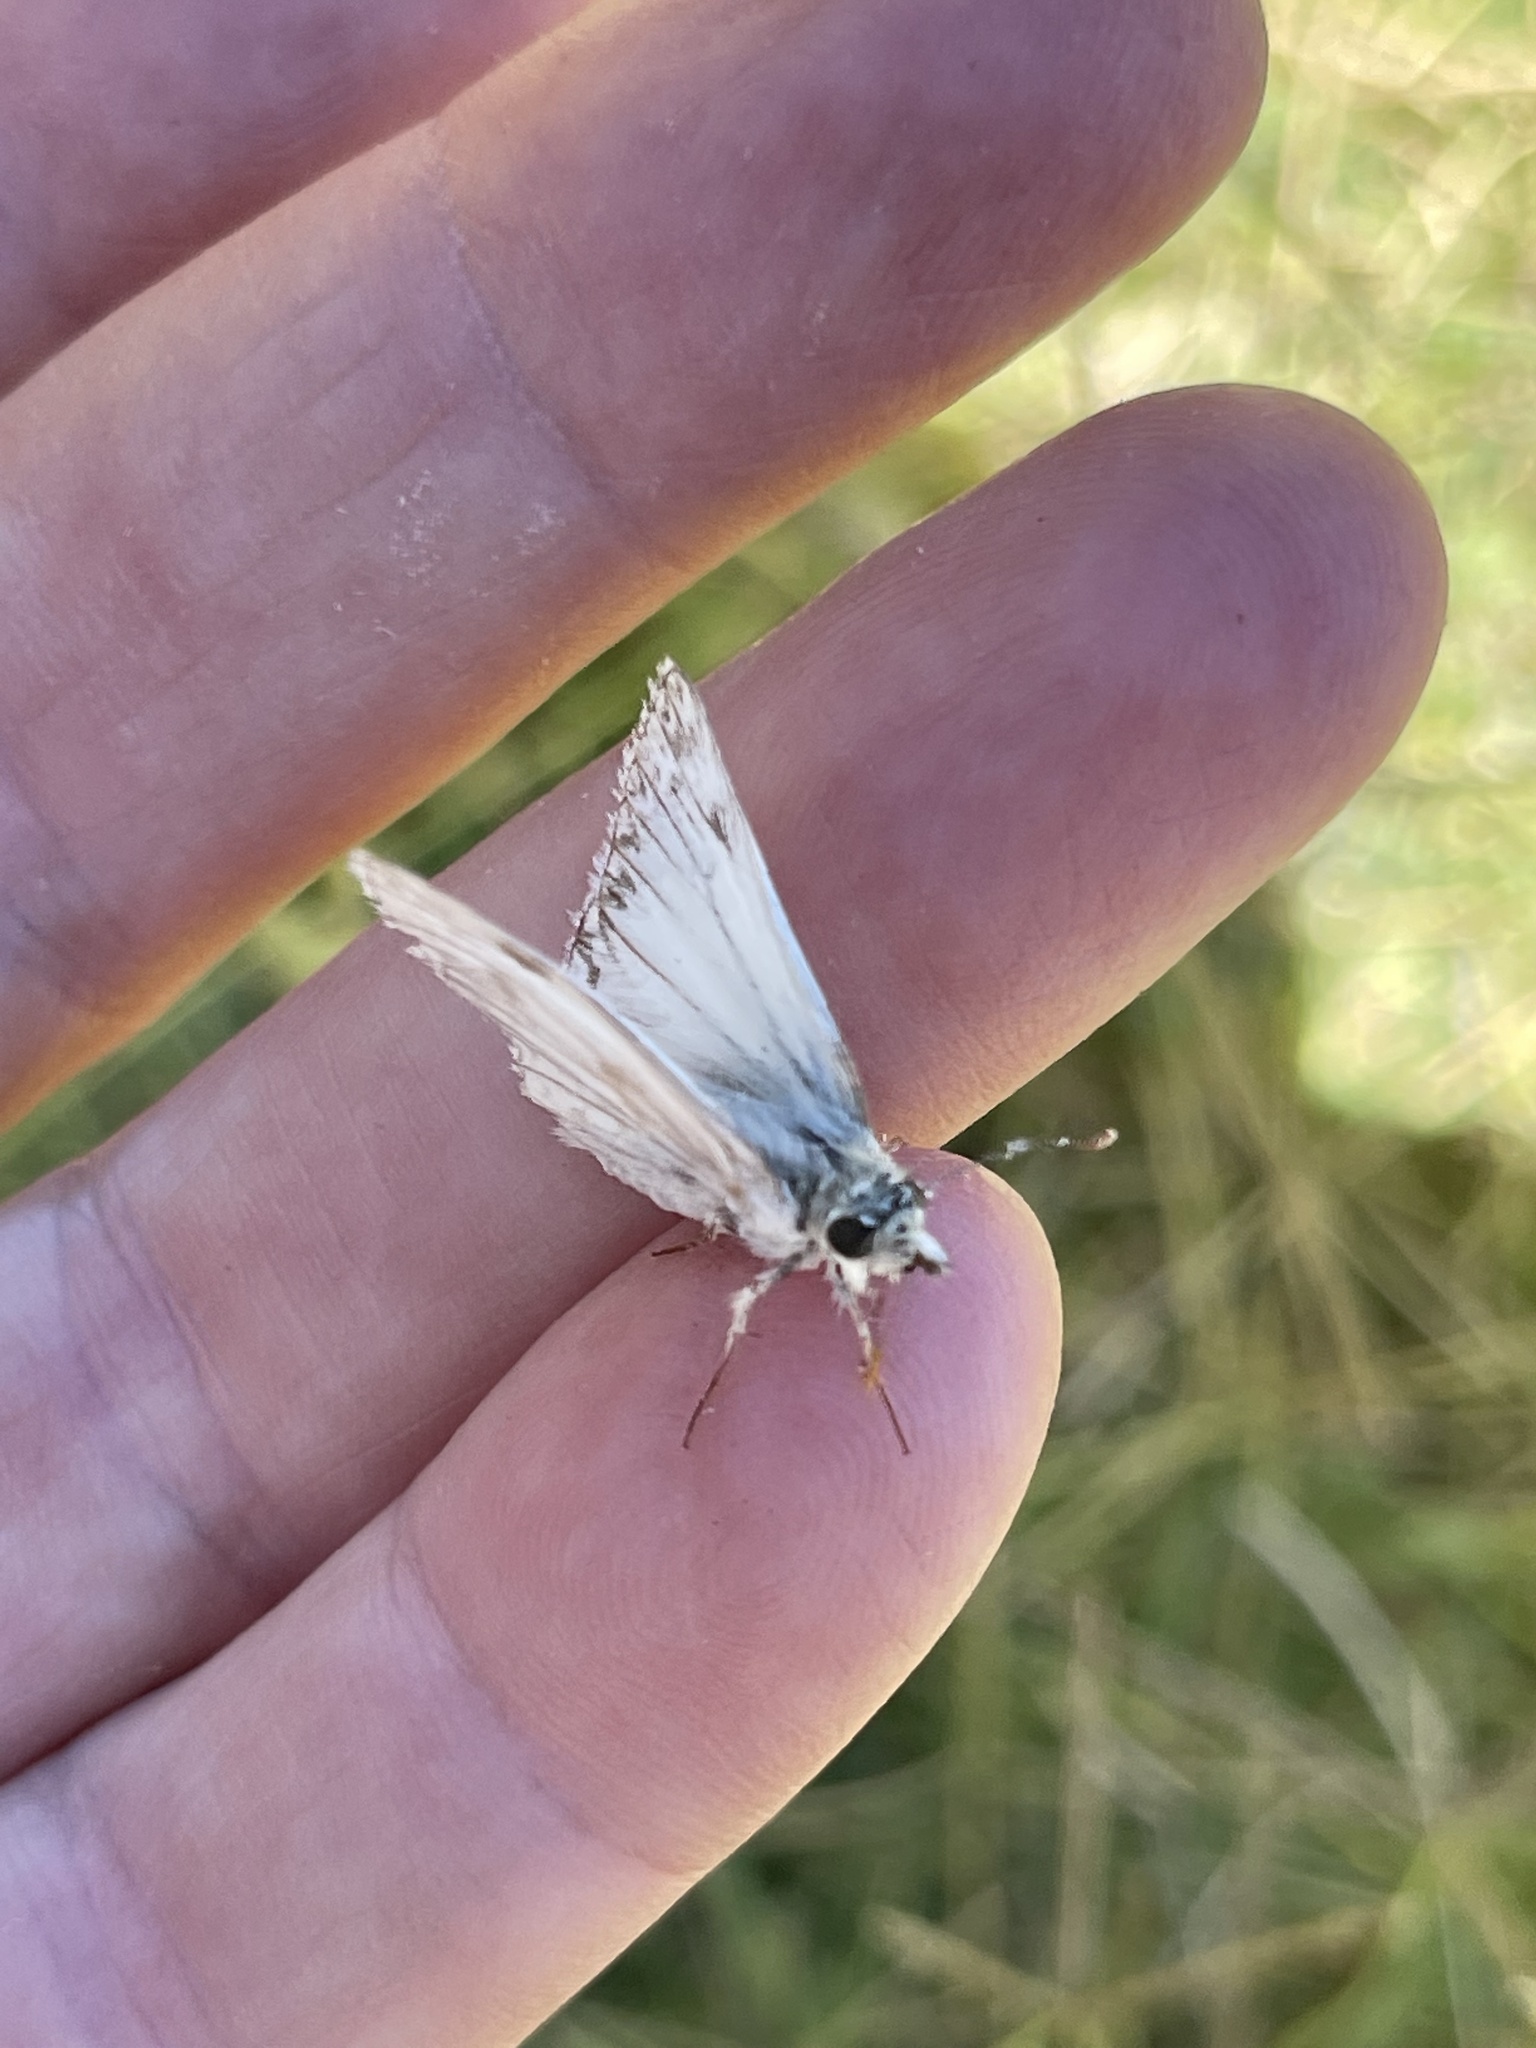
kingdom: Animalia
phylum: Arthropoda
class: Insecta
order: Lepidoptera
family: Hesperiidae
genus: Heliopetes
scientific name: Heliopetes ericetorum
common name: Northern white-skipper
